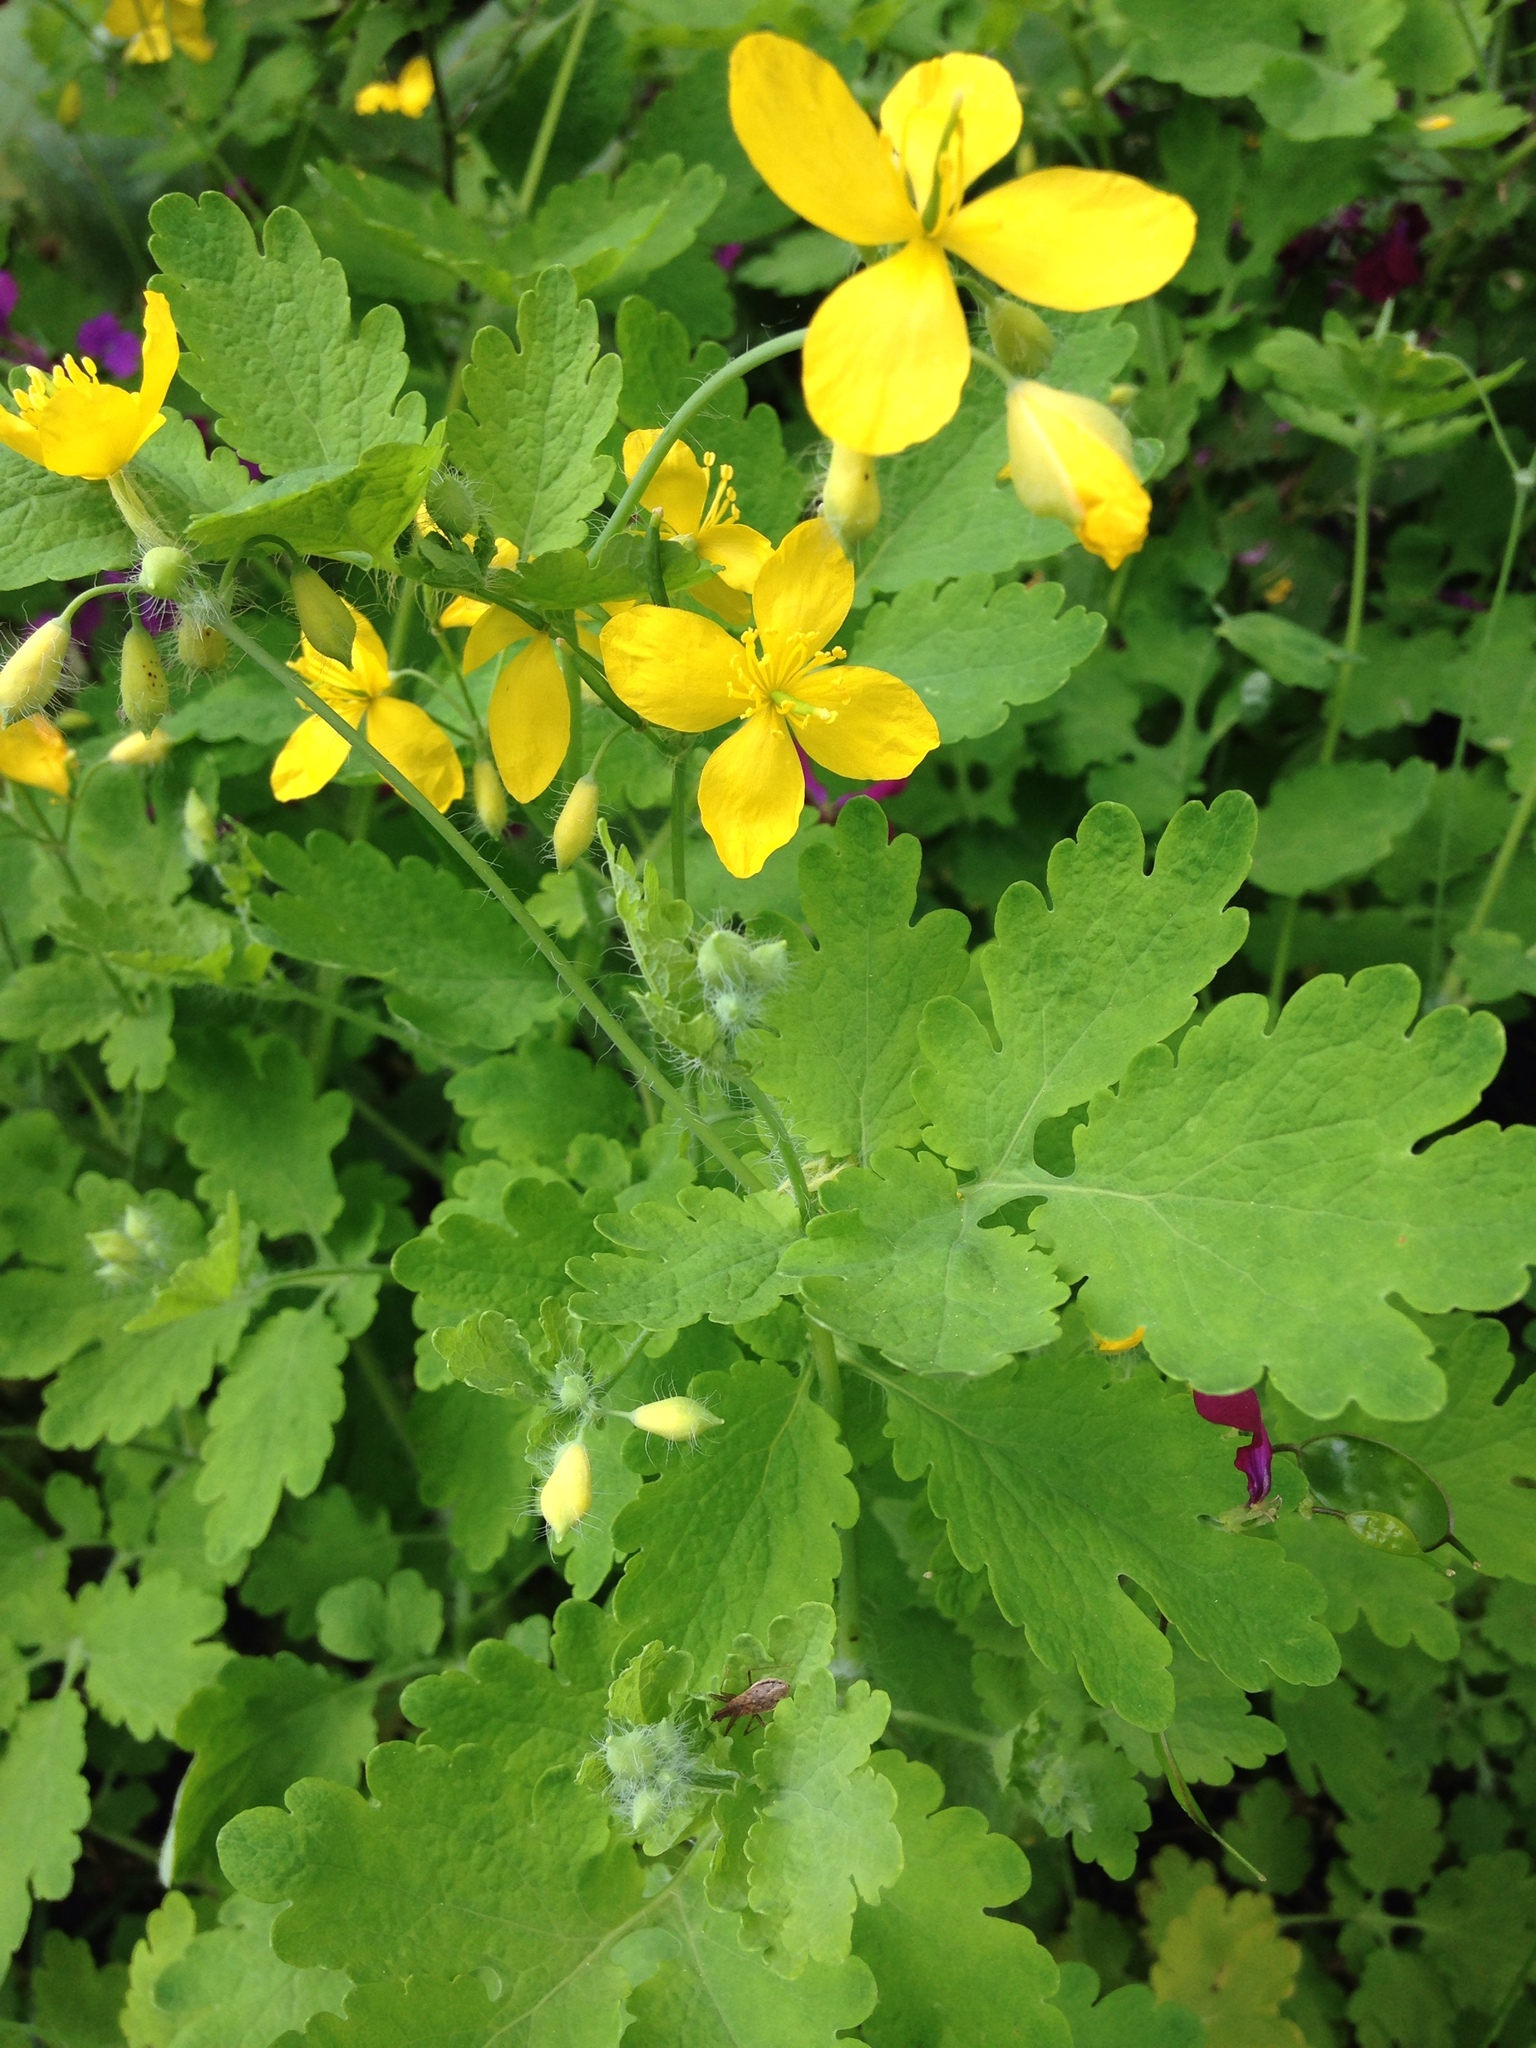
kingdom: Plantae
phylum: Tracheophyta
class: Magnoliopsida
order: Ranunculales
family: Papaveraceae
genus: Chelidonium
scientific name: Chelidonium majus
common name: Greater celandine
